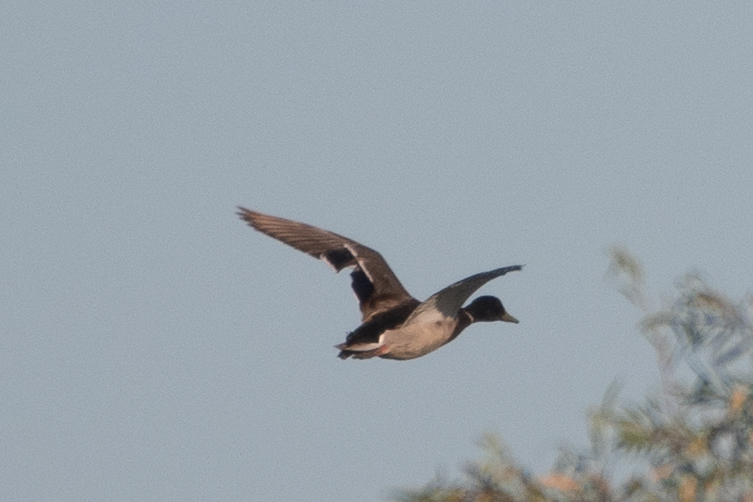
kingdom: Animalia
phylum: Chordata
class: Aves
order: Anseriformes
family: Anatidae
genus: Anas
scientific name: Anas platyrhynchos
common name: Mallard
